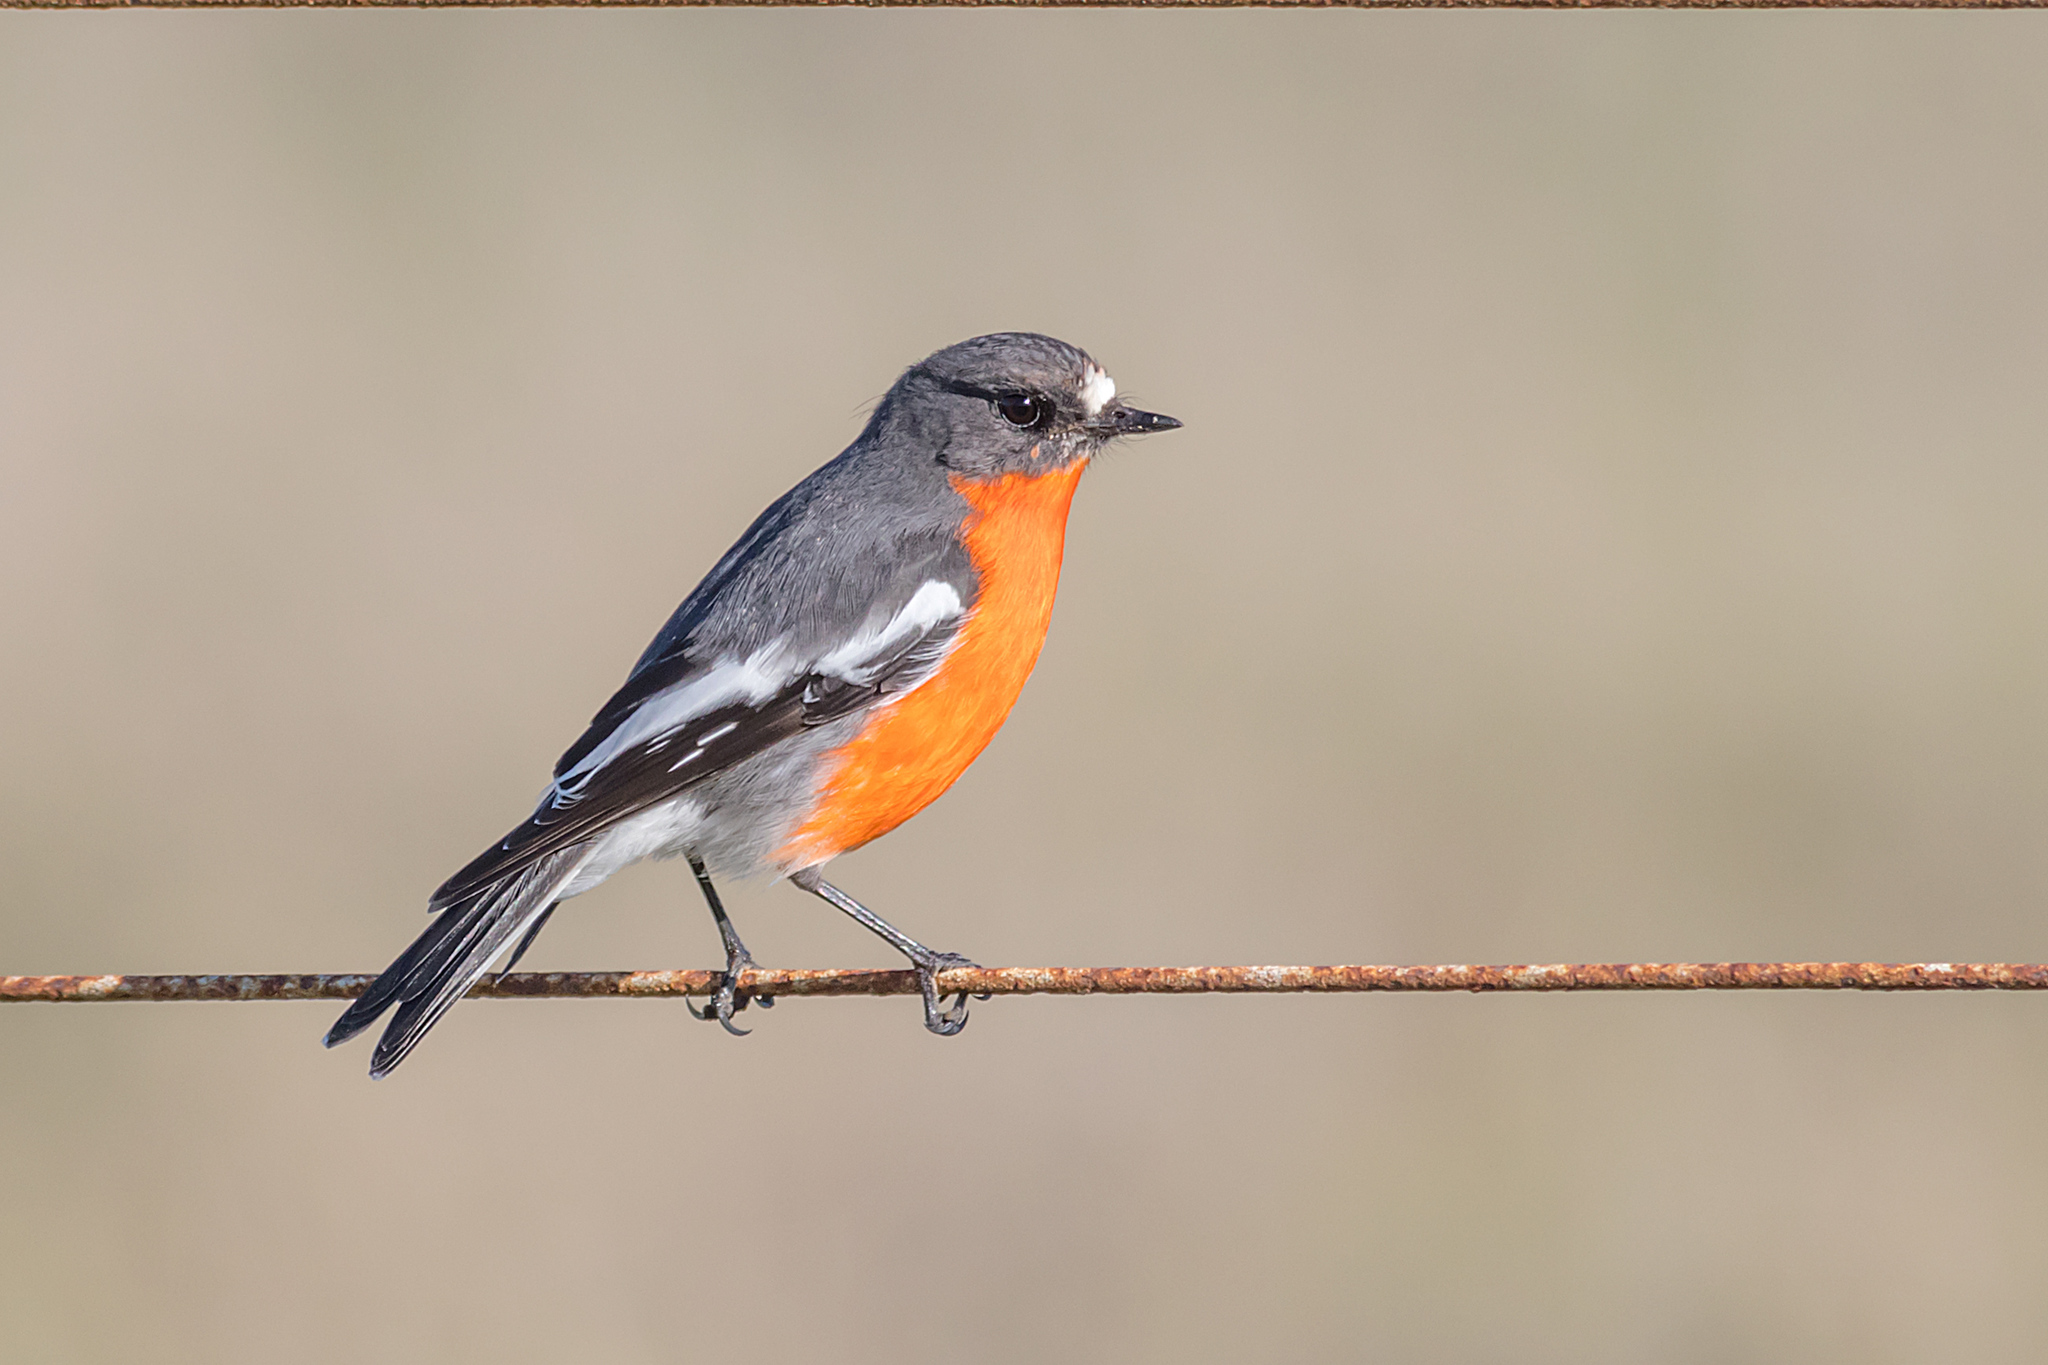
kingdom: Animalia
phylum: Chordata
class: Aves
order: Passeriformes
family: Petroicidae
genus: Petroica
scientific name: Petroica phoenicea
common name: Flame robin
